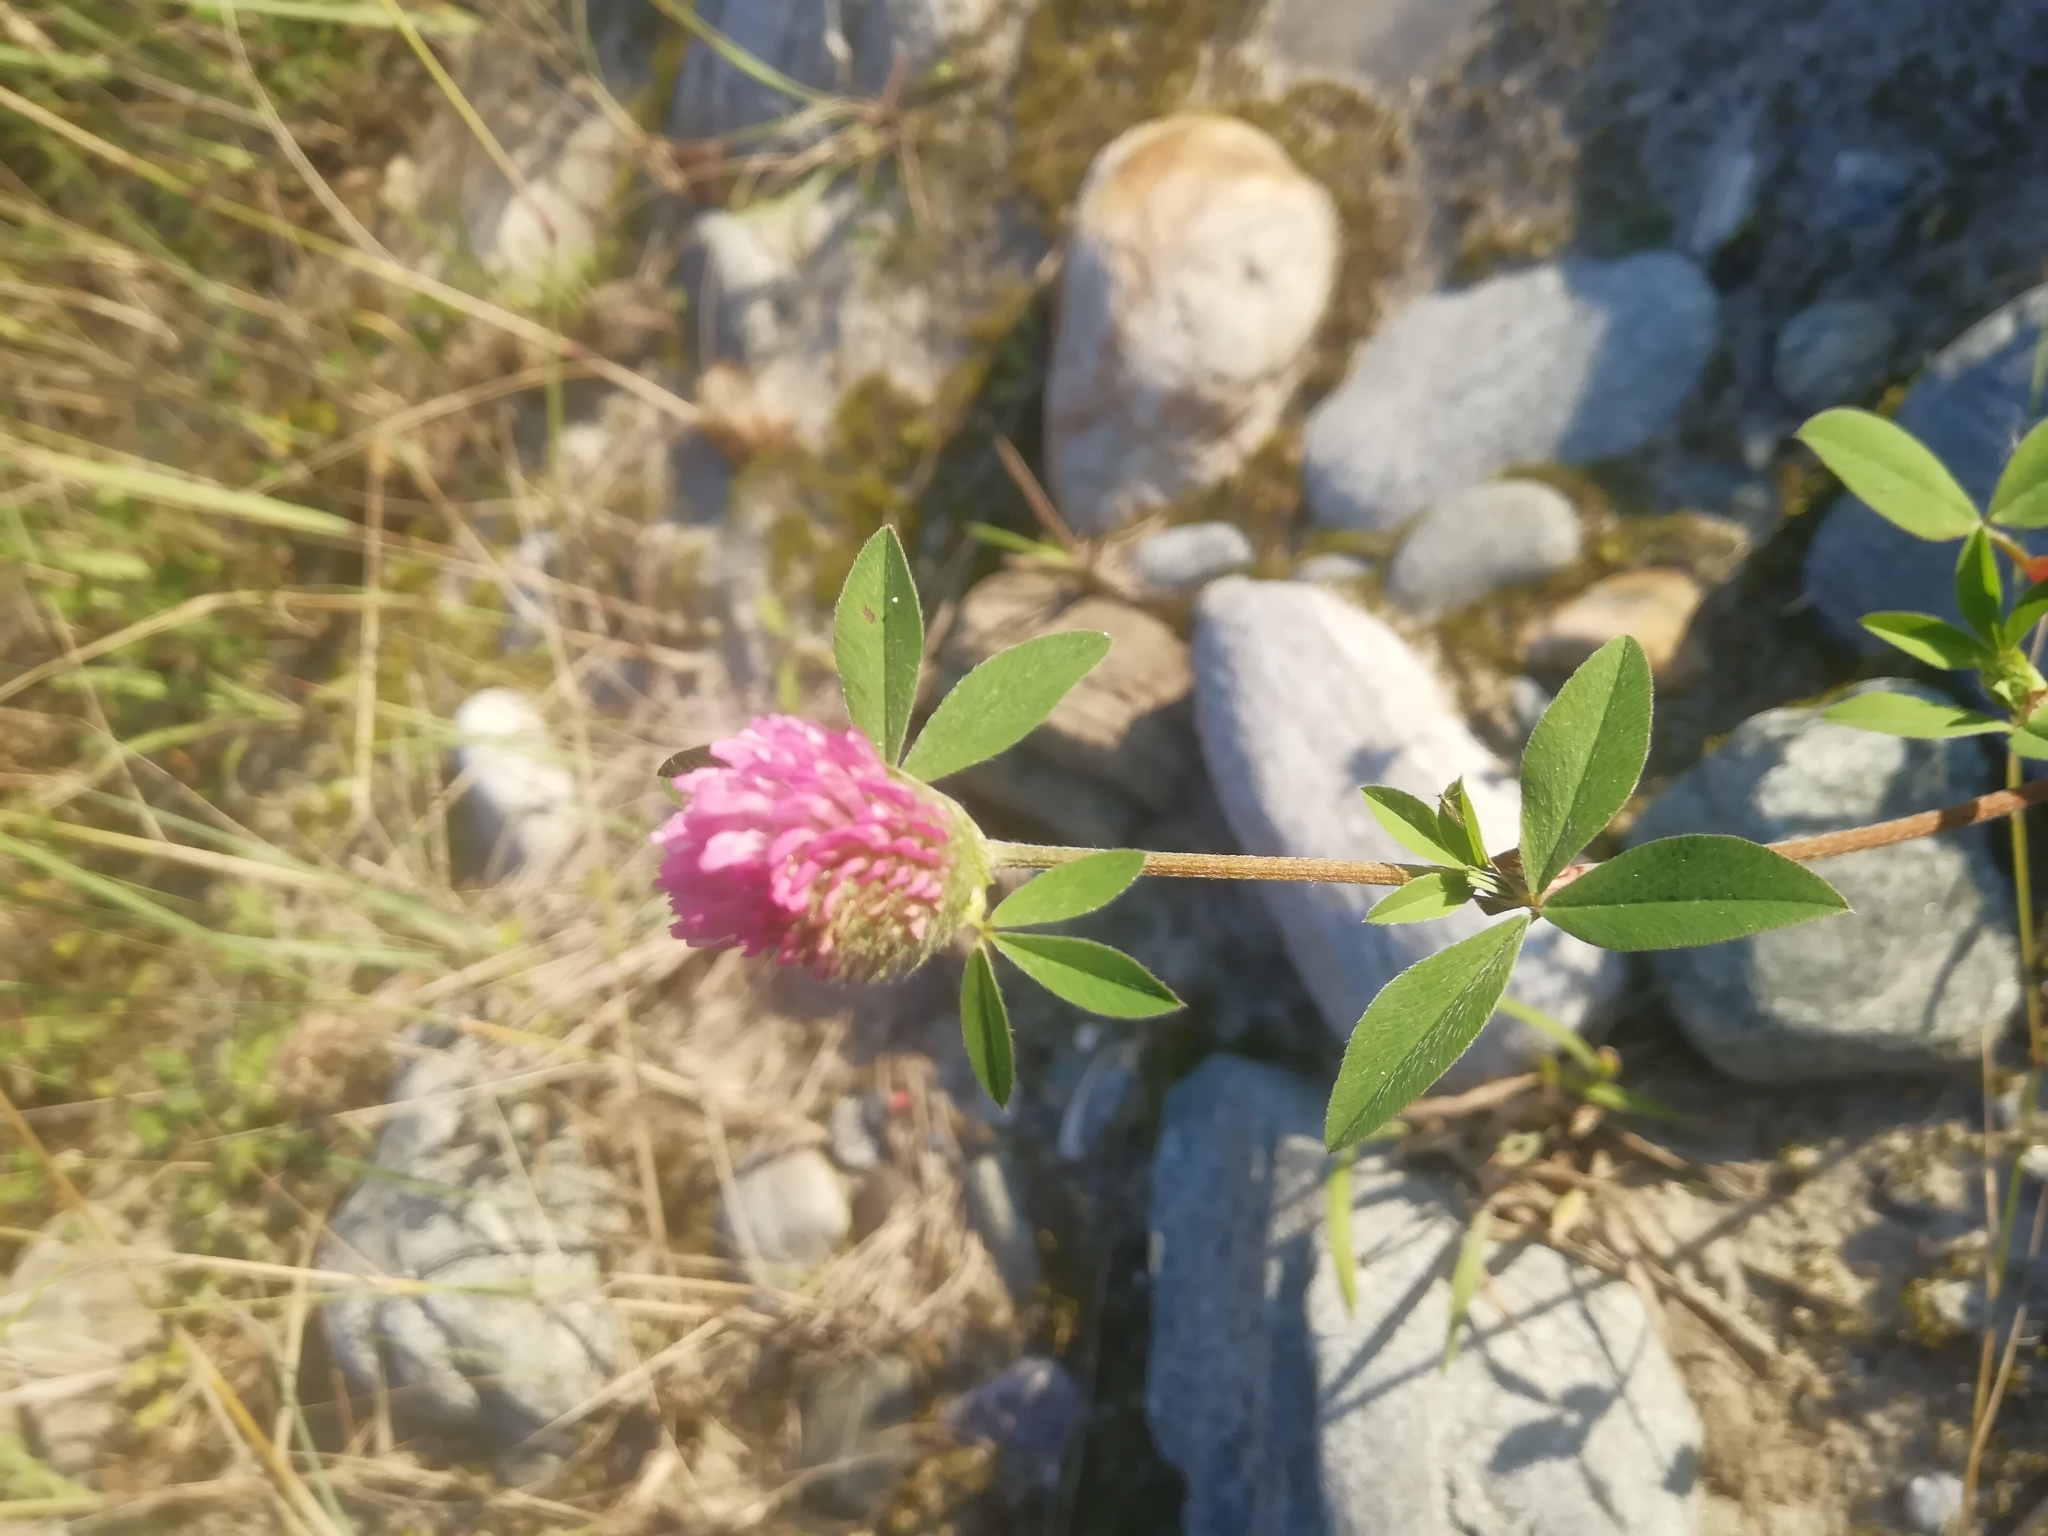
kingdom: Plantae
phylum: Tracheophyta
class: Magnoliopsida
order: Fabales
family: Fabaceae
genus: Trifolium
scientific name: Trifolium pratense
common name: Red clover
